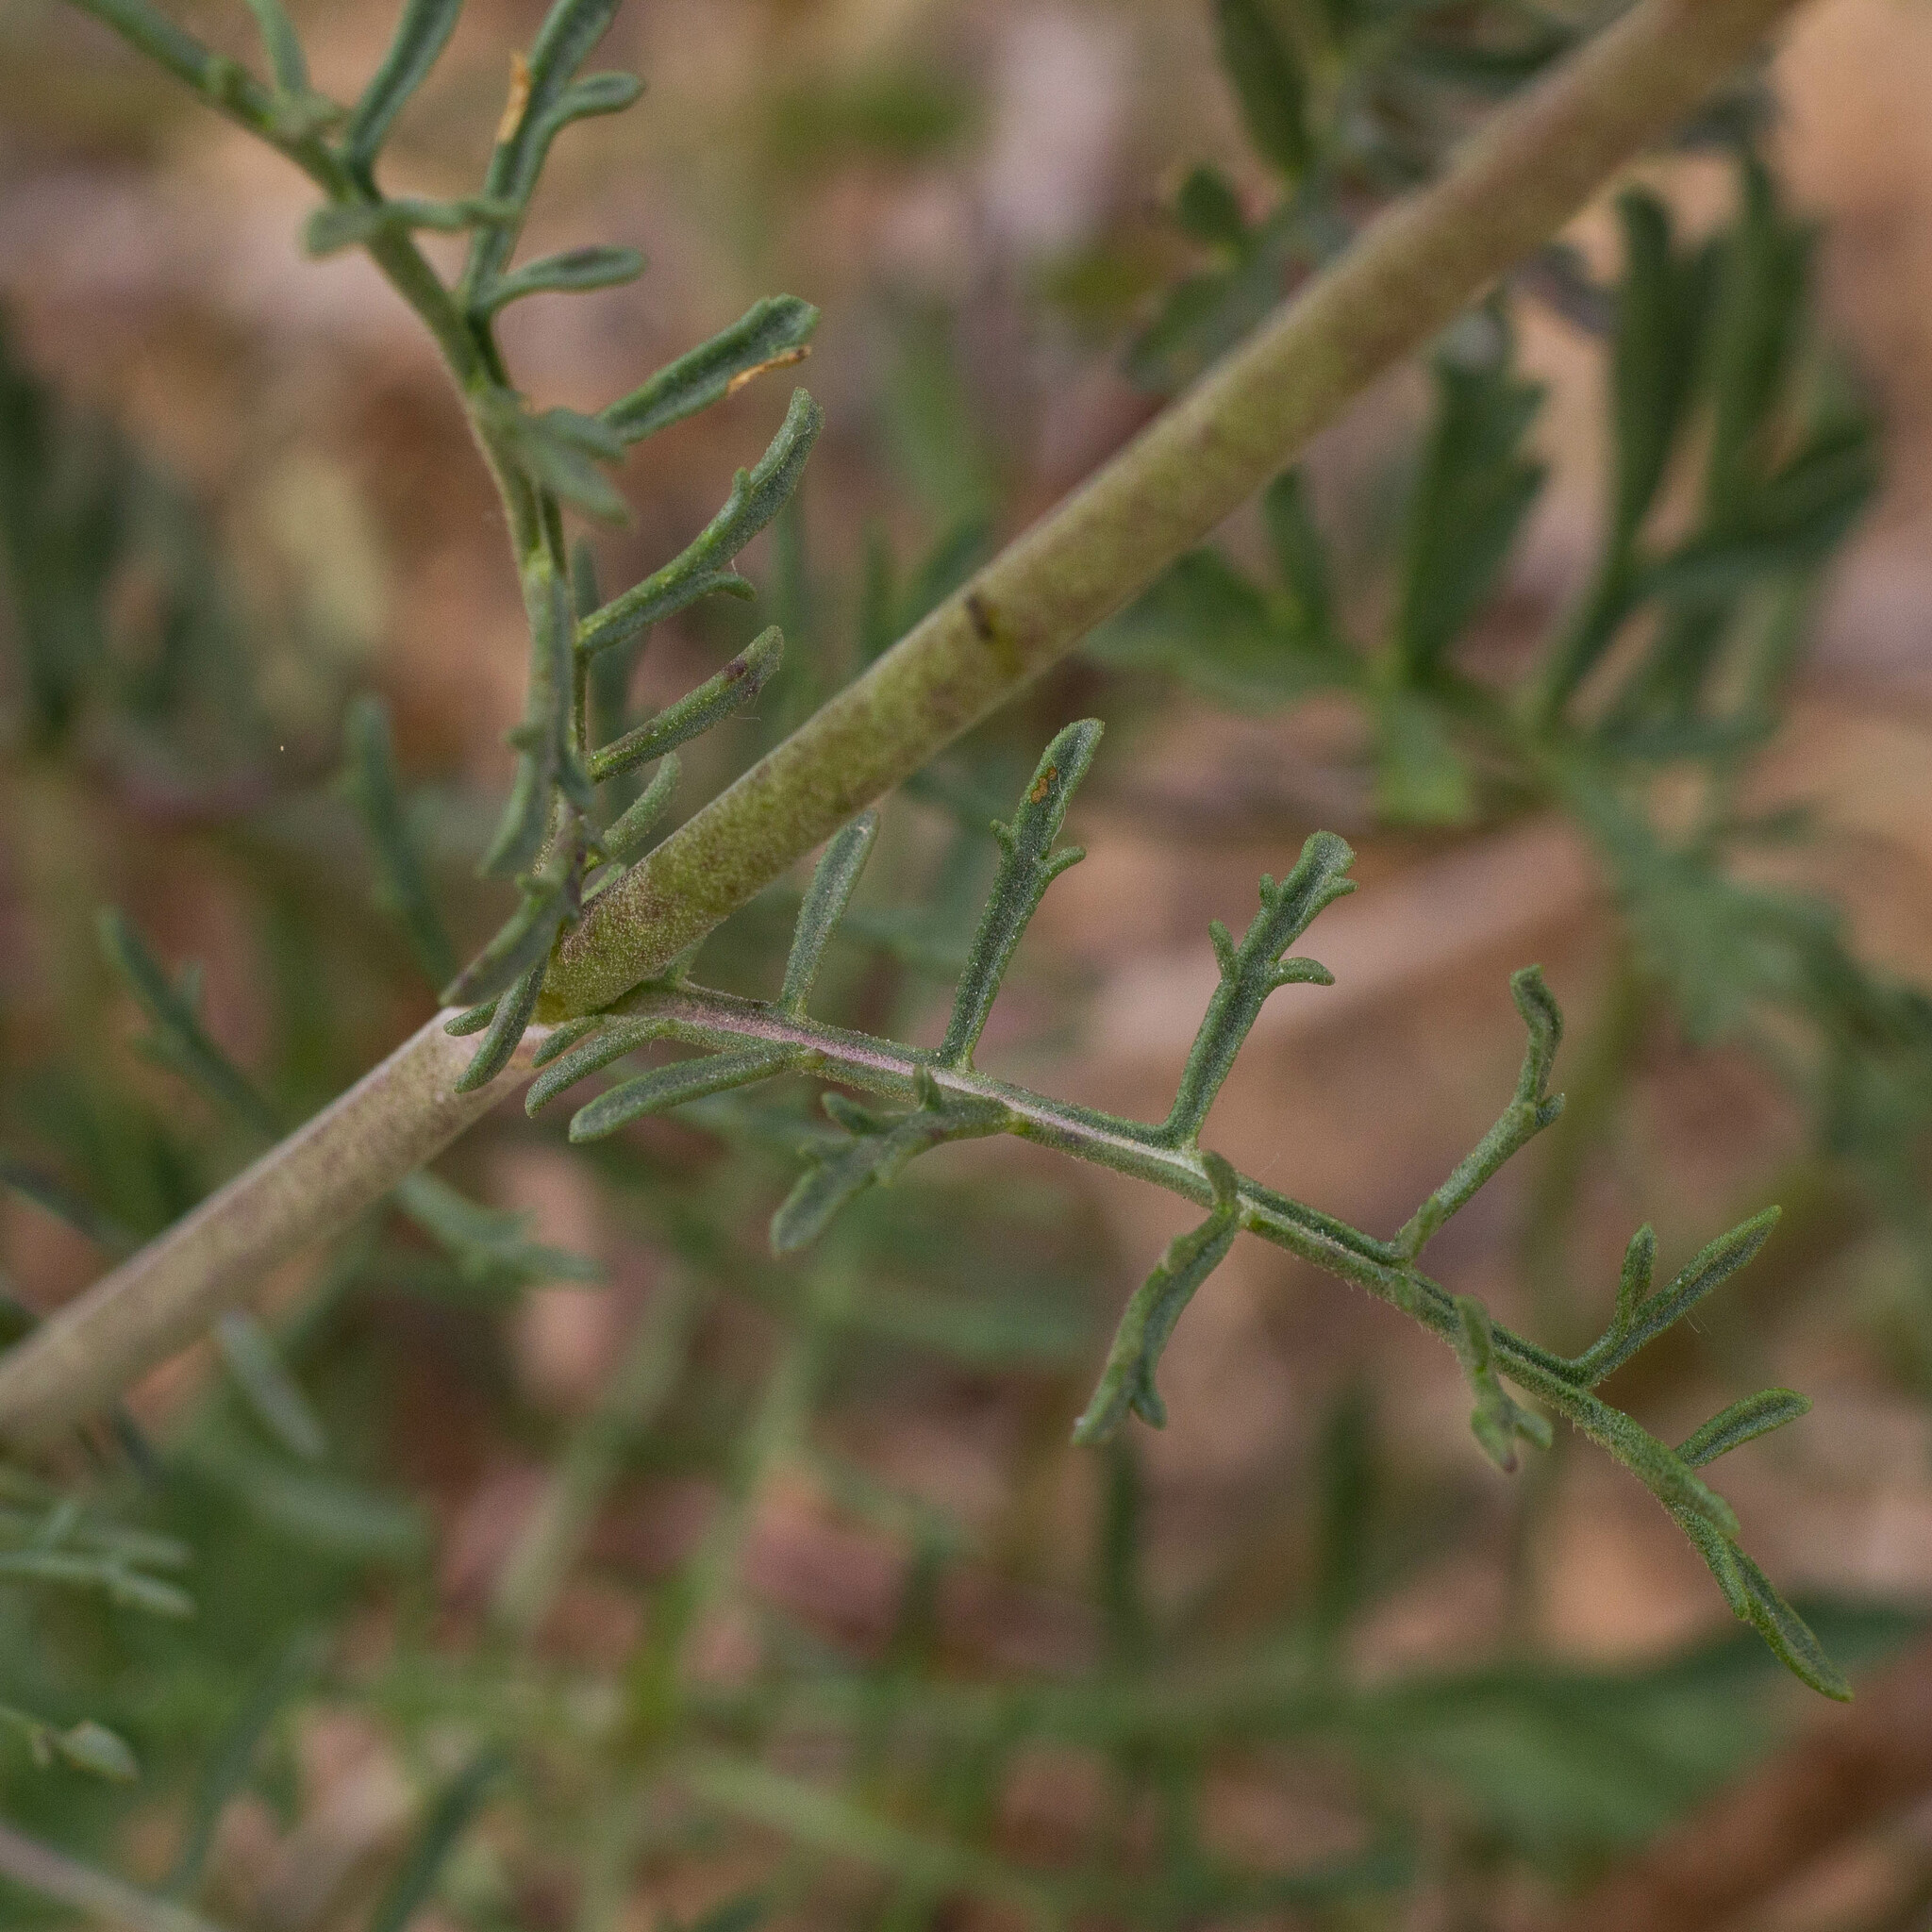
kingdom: Plantae
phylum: Tracheophyta
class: Magnoliopsida
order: Dipsacales
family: Caprifoliaceae
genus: Pycnocomon
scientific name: Pycnocomon rutifolium
